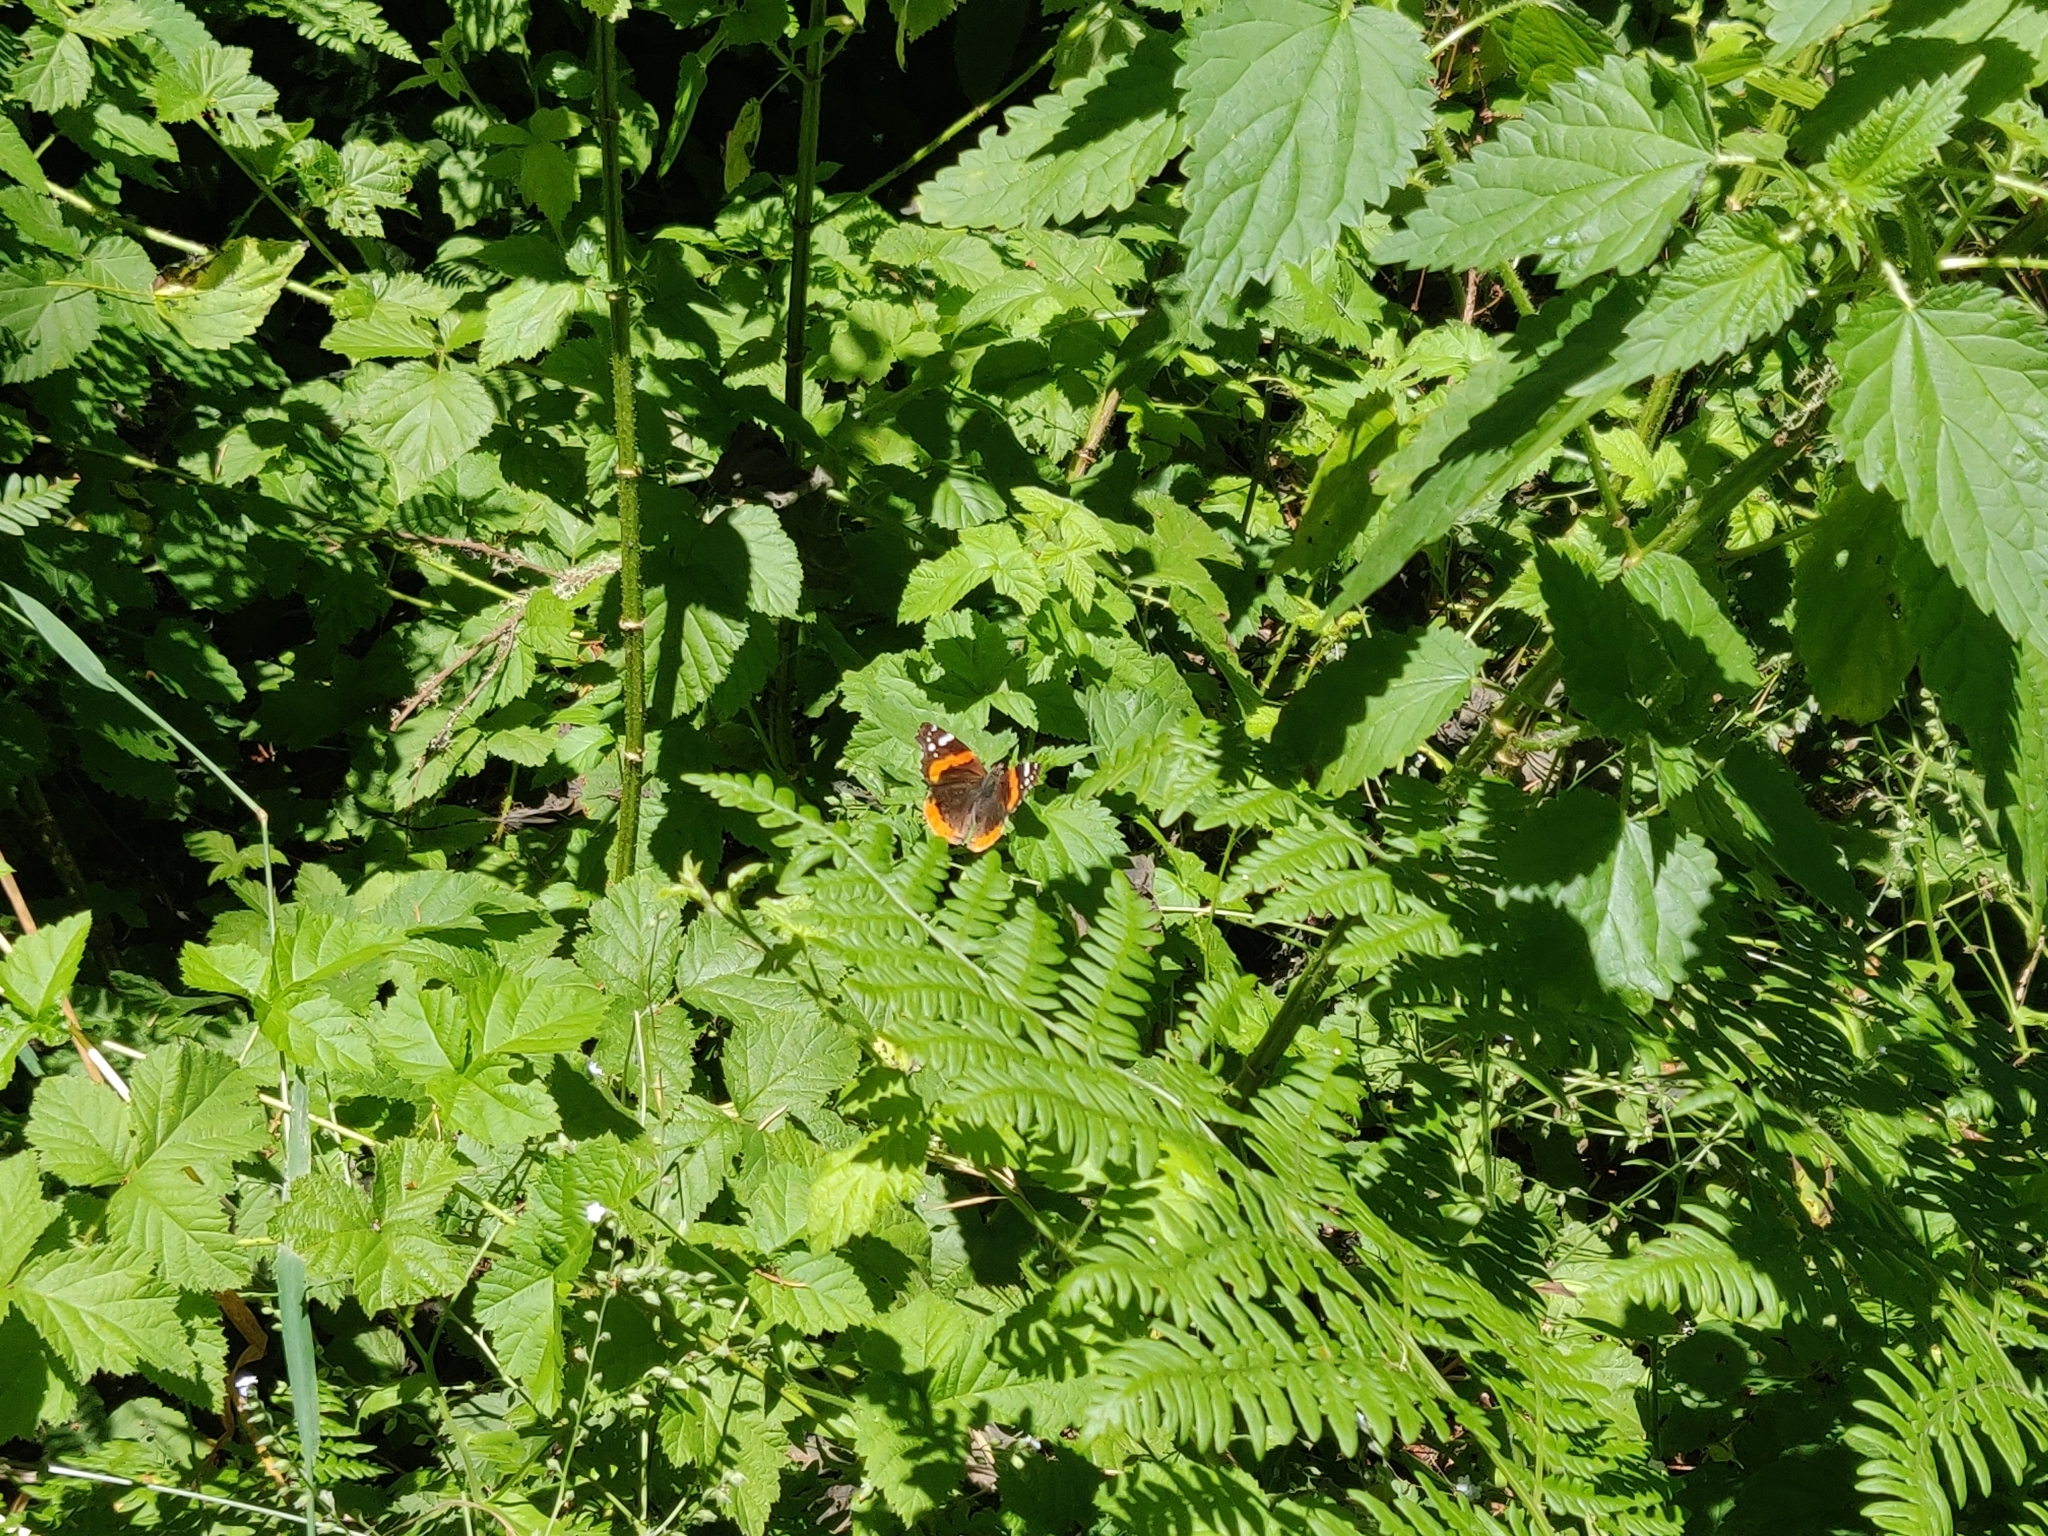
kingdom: Animalia
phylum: Arthropoda
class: Insecta
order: Lepidoptera
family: Nymphalidae
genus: Vanessa
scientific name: Vanessa atalanta
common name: Red admiral
